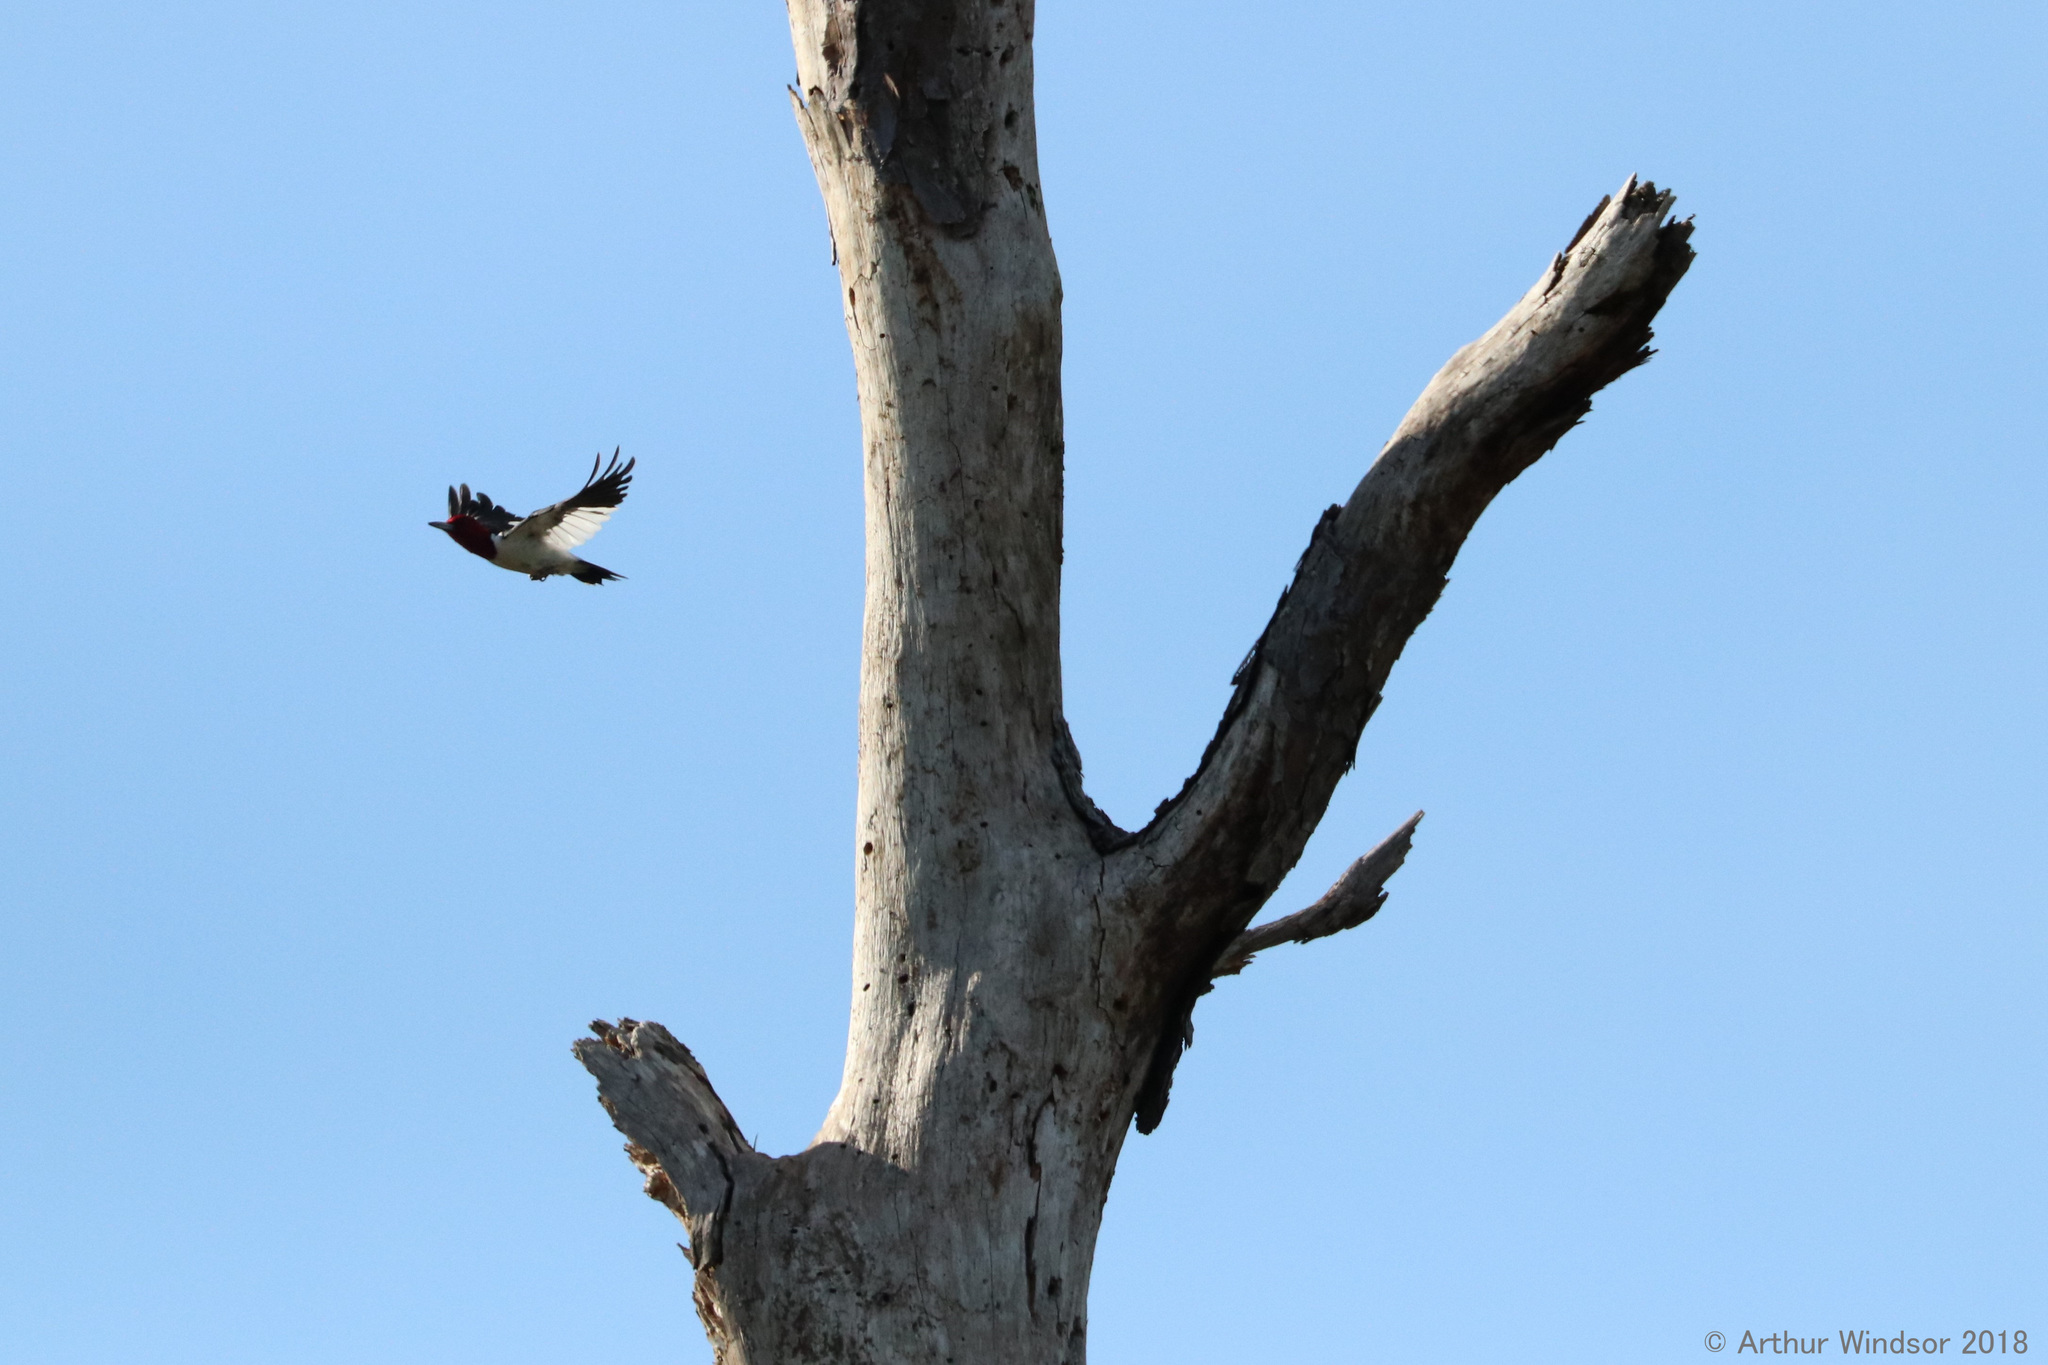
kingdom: Animalia
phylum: Chordata
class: Aves
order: Piciformes
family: Picidae
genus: Melanerpes
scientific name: Melanerpes erythrocephalus
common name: Red-headed woodpecker
